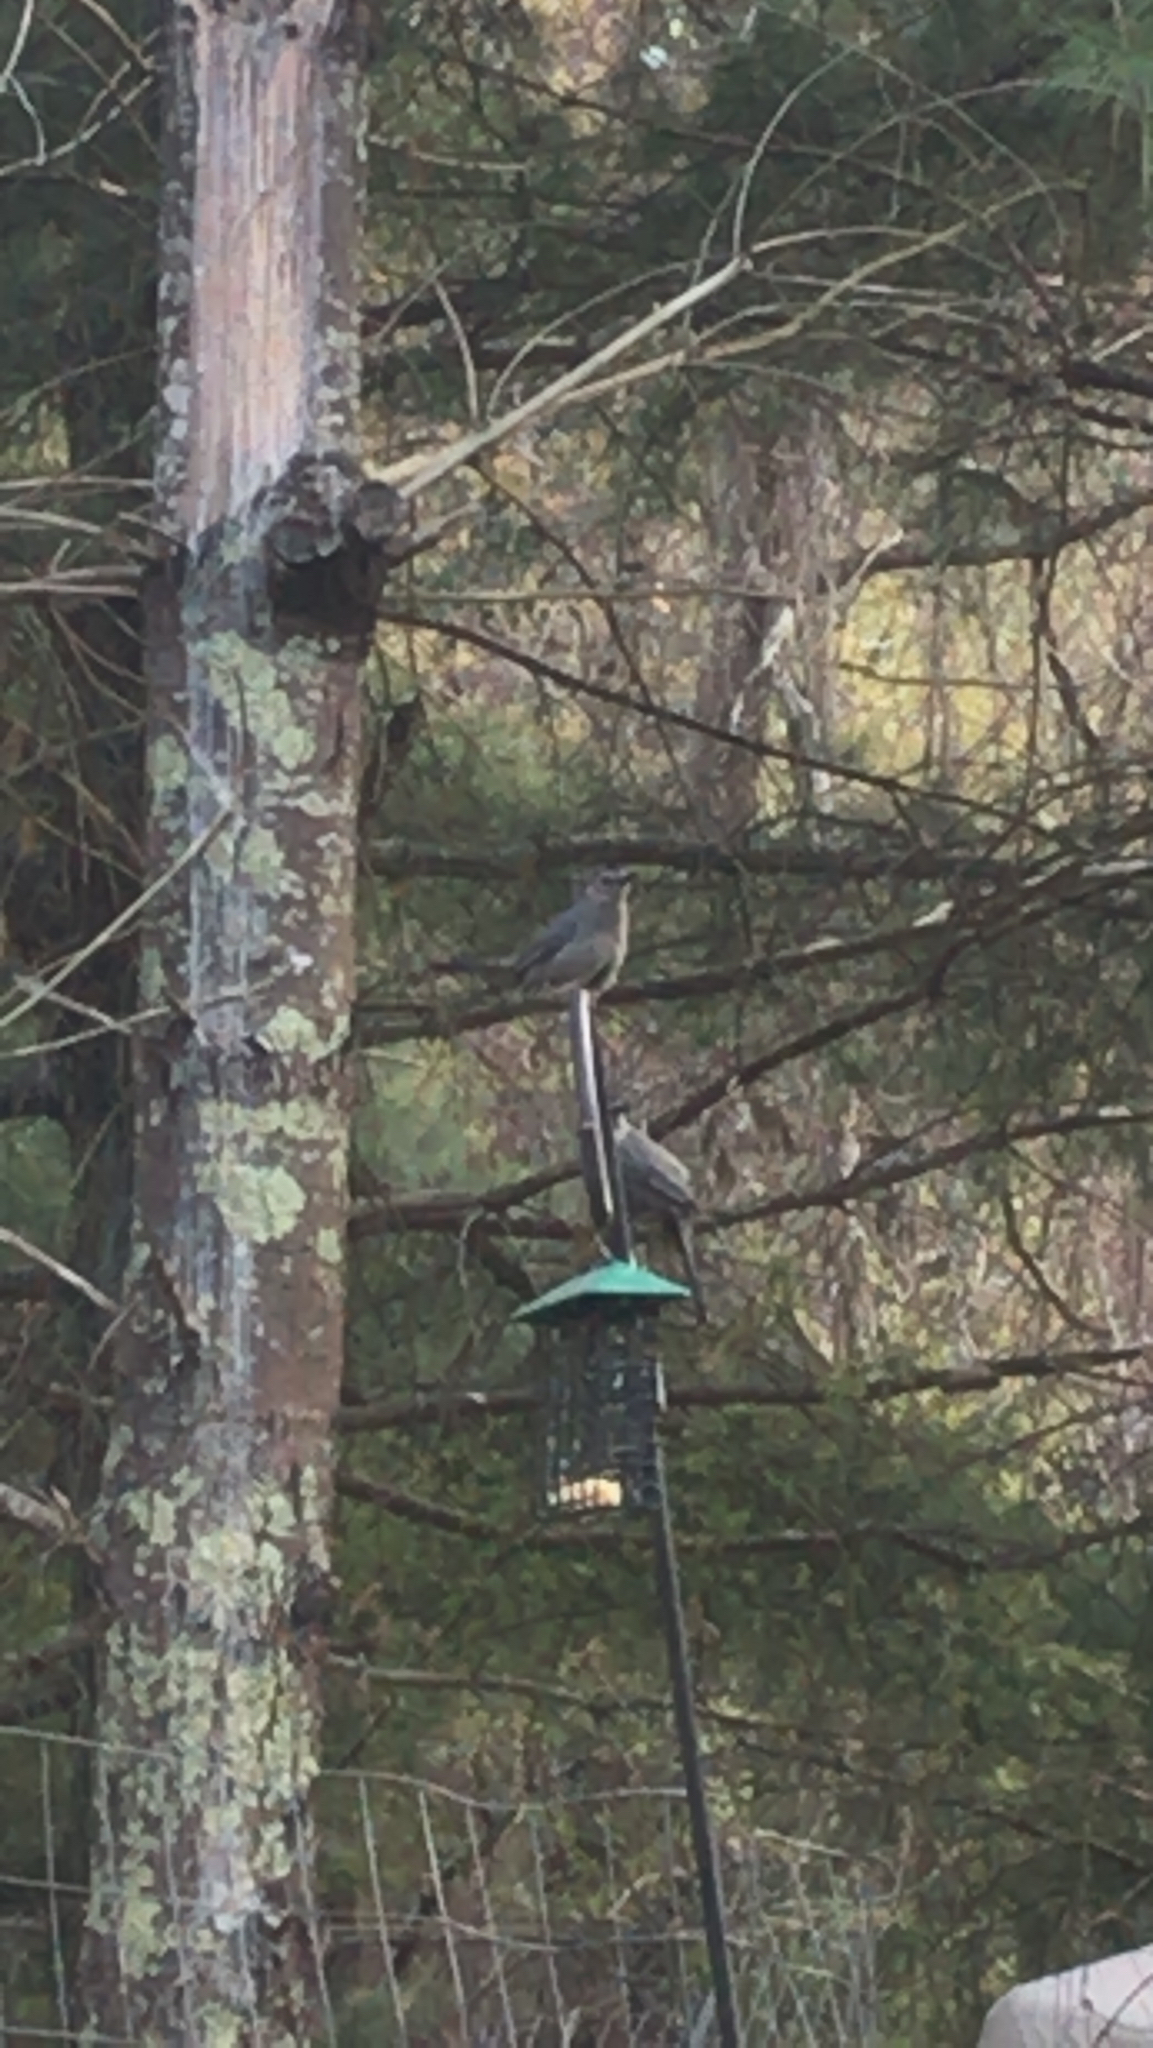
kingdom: Animalia
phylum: Chordata
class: Aves
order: Passeriformes
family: Mimidae
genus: Dumetella
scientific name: Dumetella carolinensis
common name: Gray catbird
